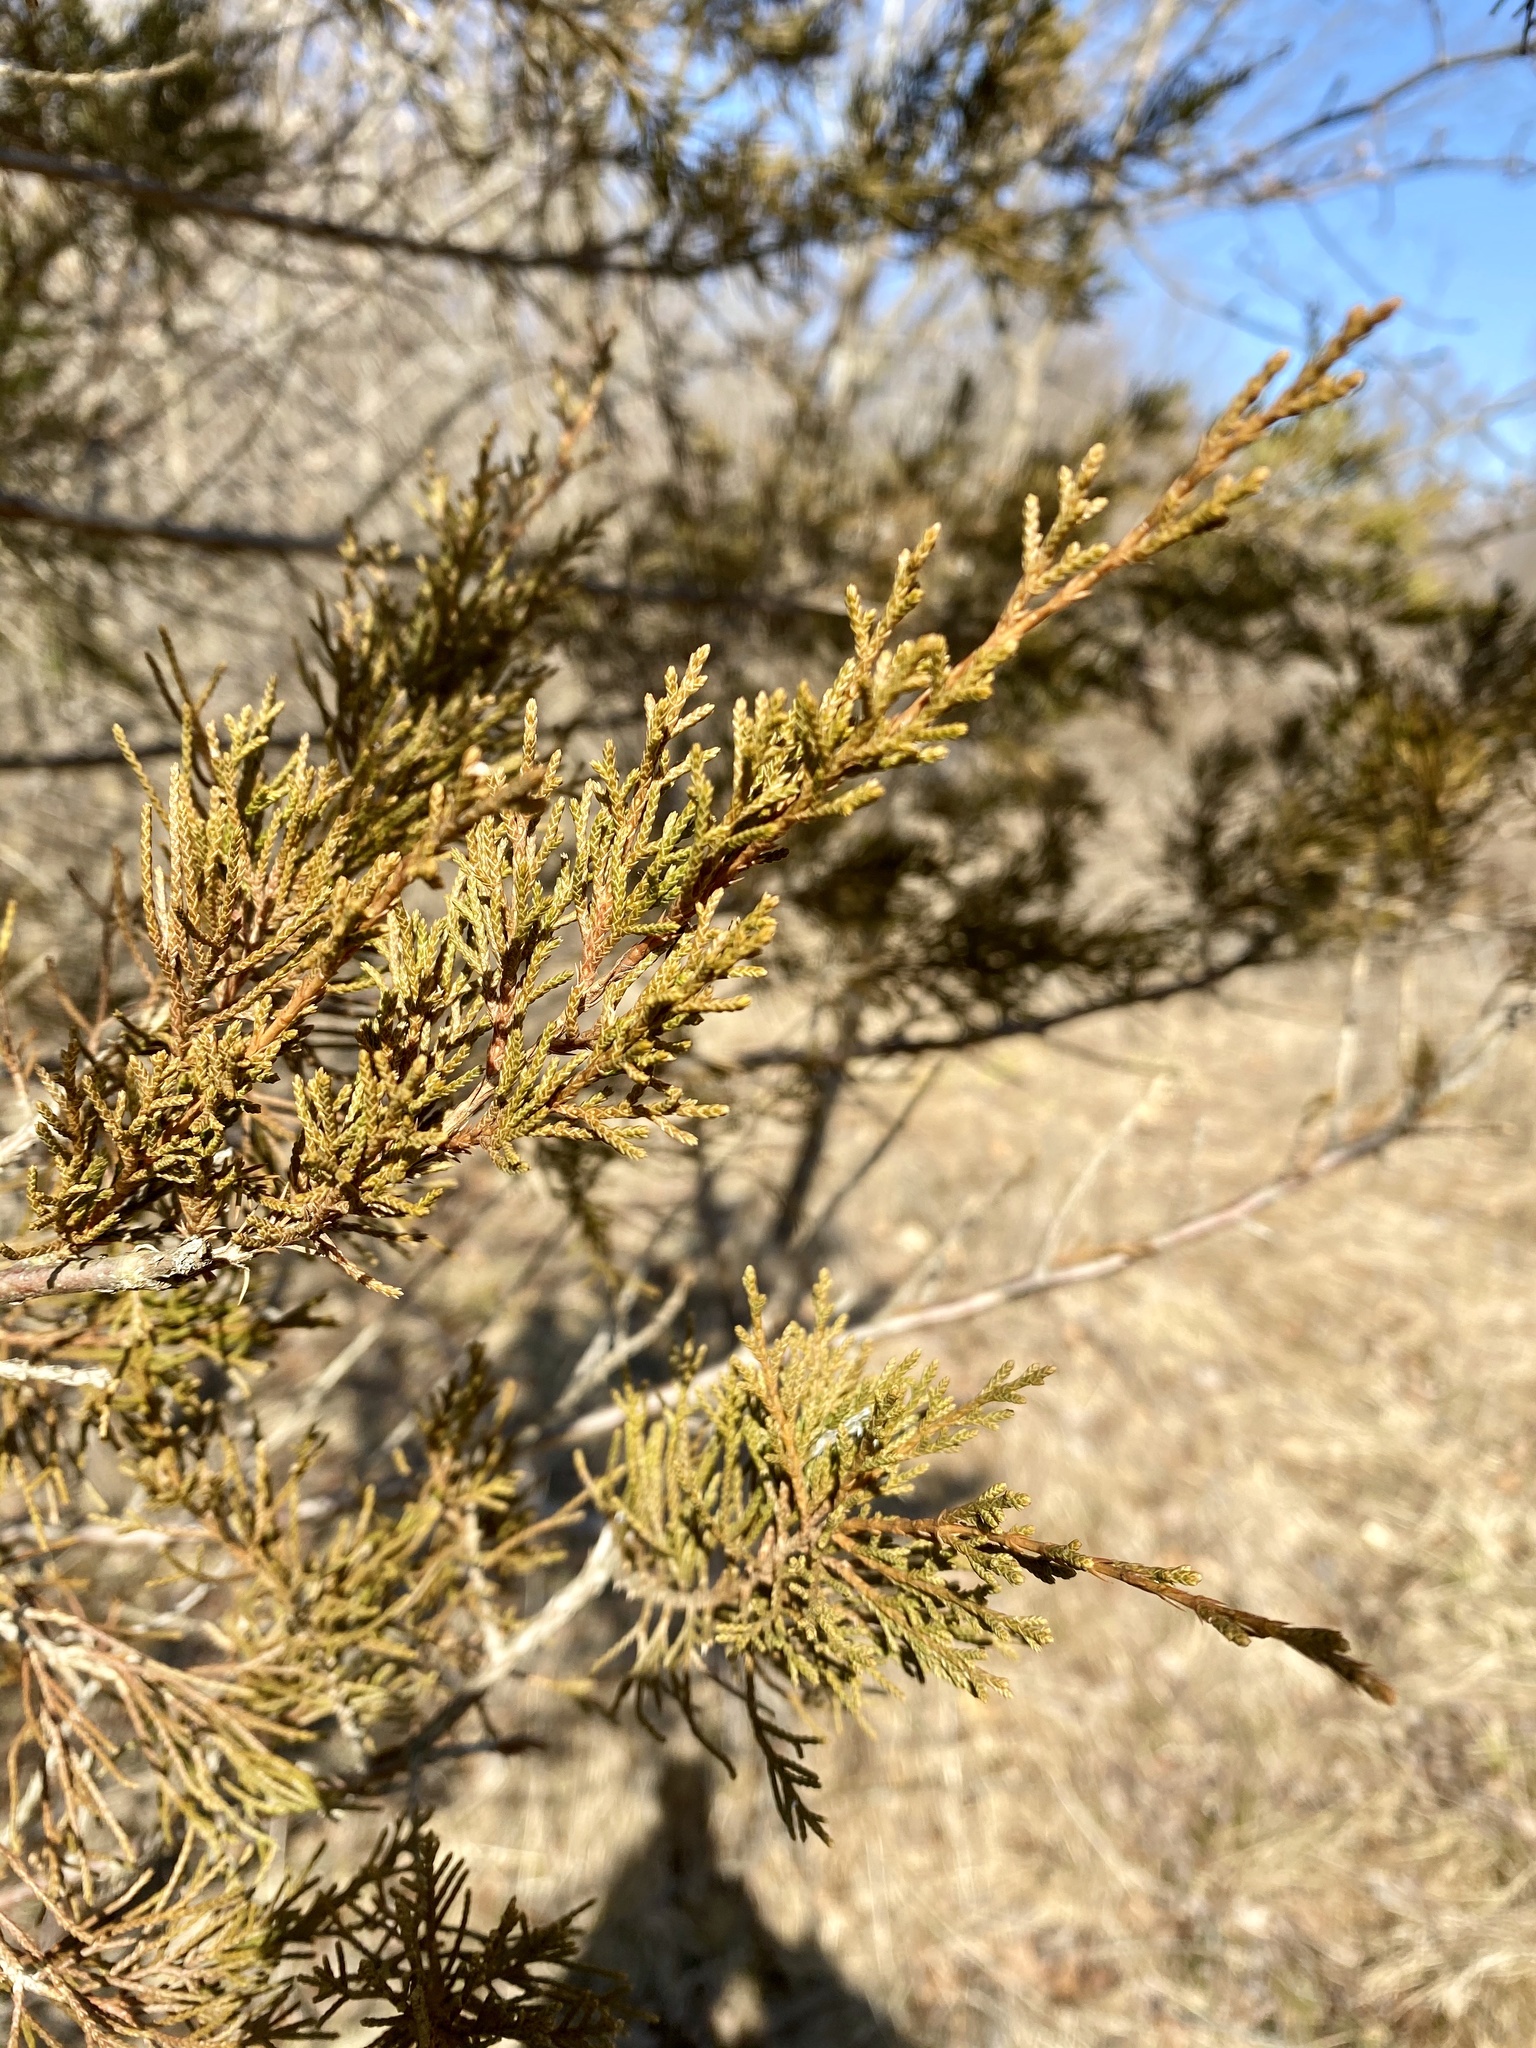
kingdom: Plantae
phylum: Tracheophyta
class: Pinopsida
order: Pinales
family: Cupressaceae
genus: Juniperus
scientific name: Juniperus virginiana
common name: Red juniper
